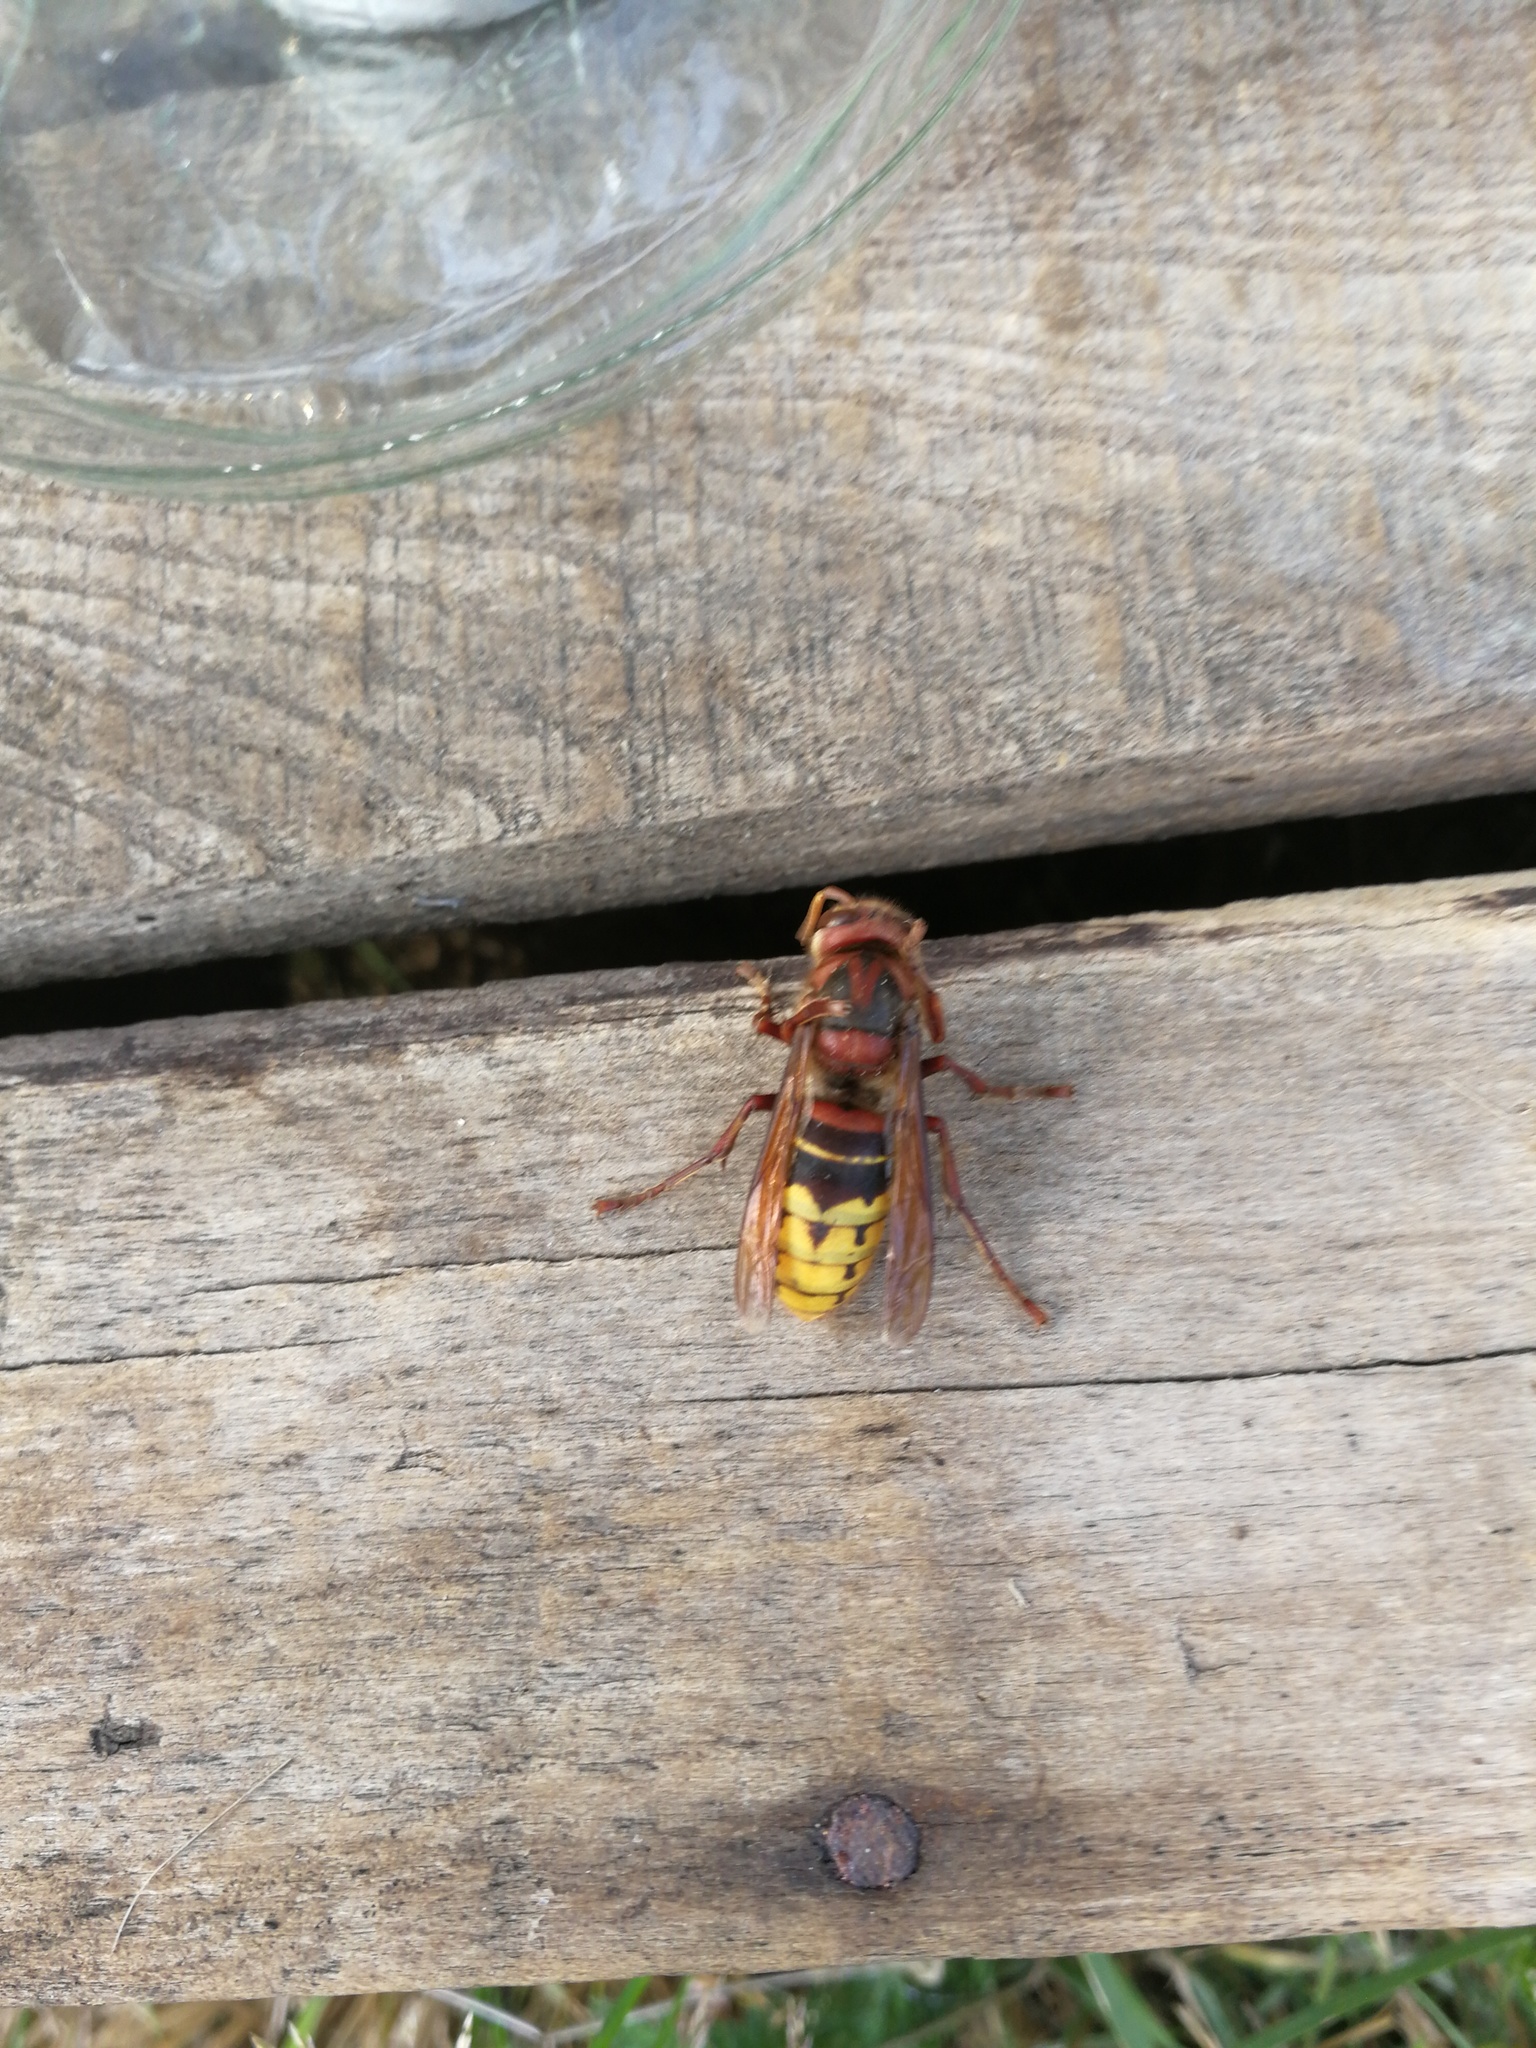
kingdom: Animalia
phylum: Arthropoda
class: Insecta
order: Hymenoptera
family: Vespidae
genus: Vespa
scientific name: Vespa crabro
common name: Hornet
